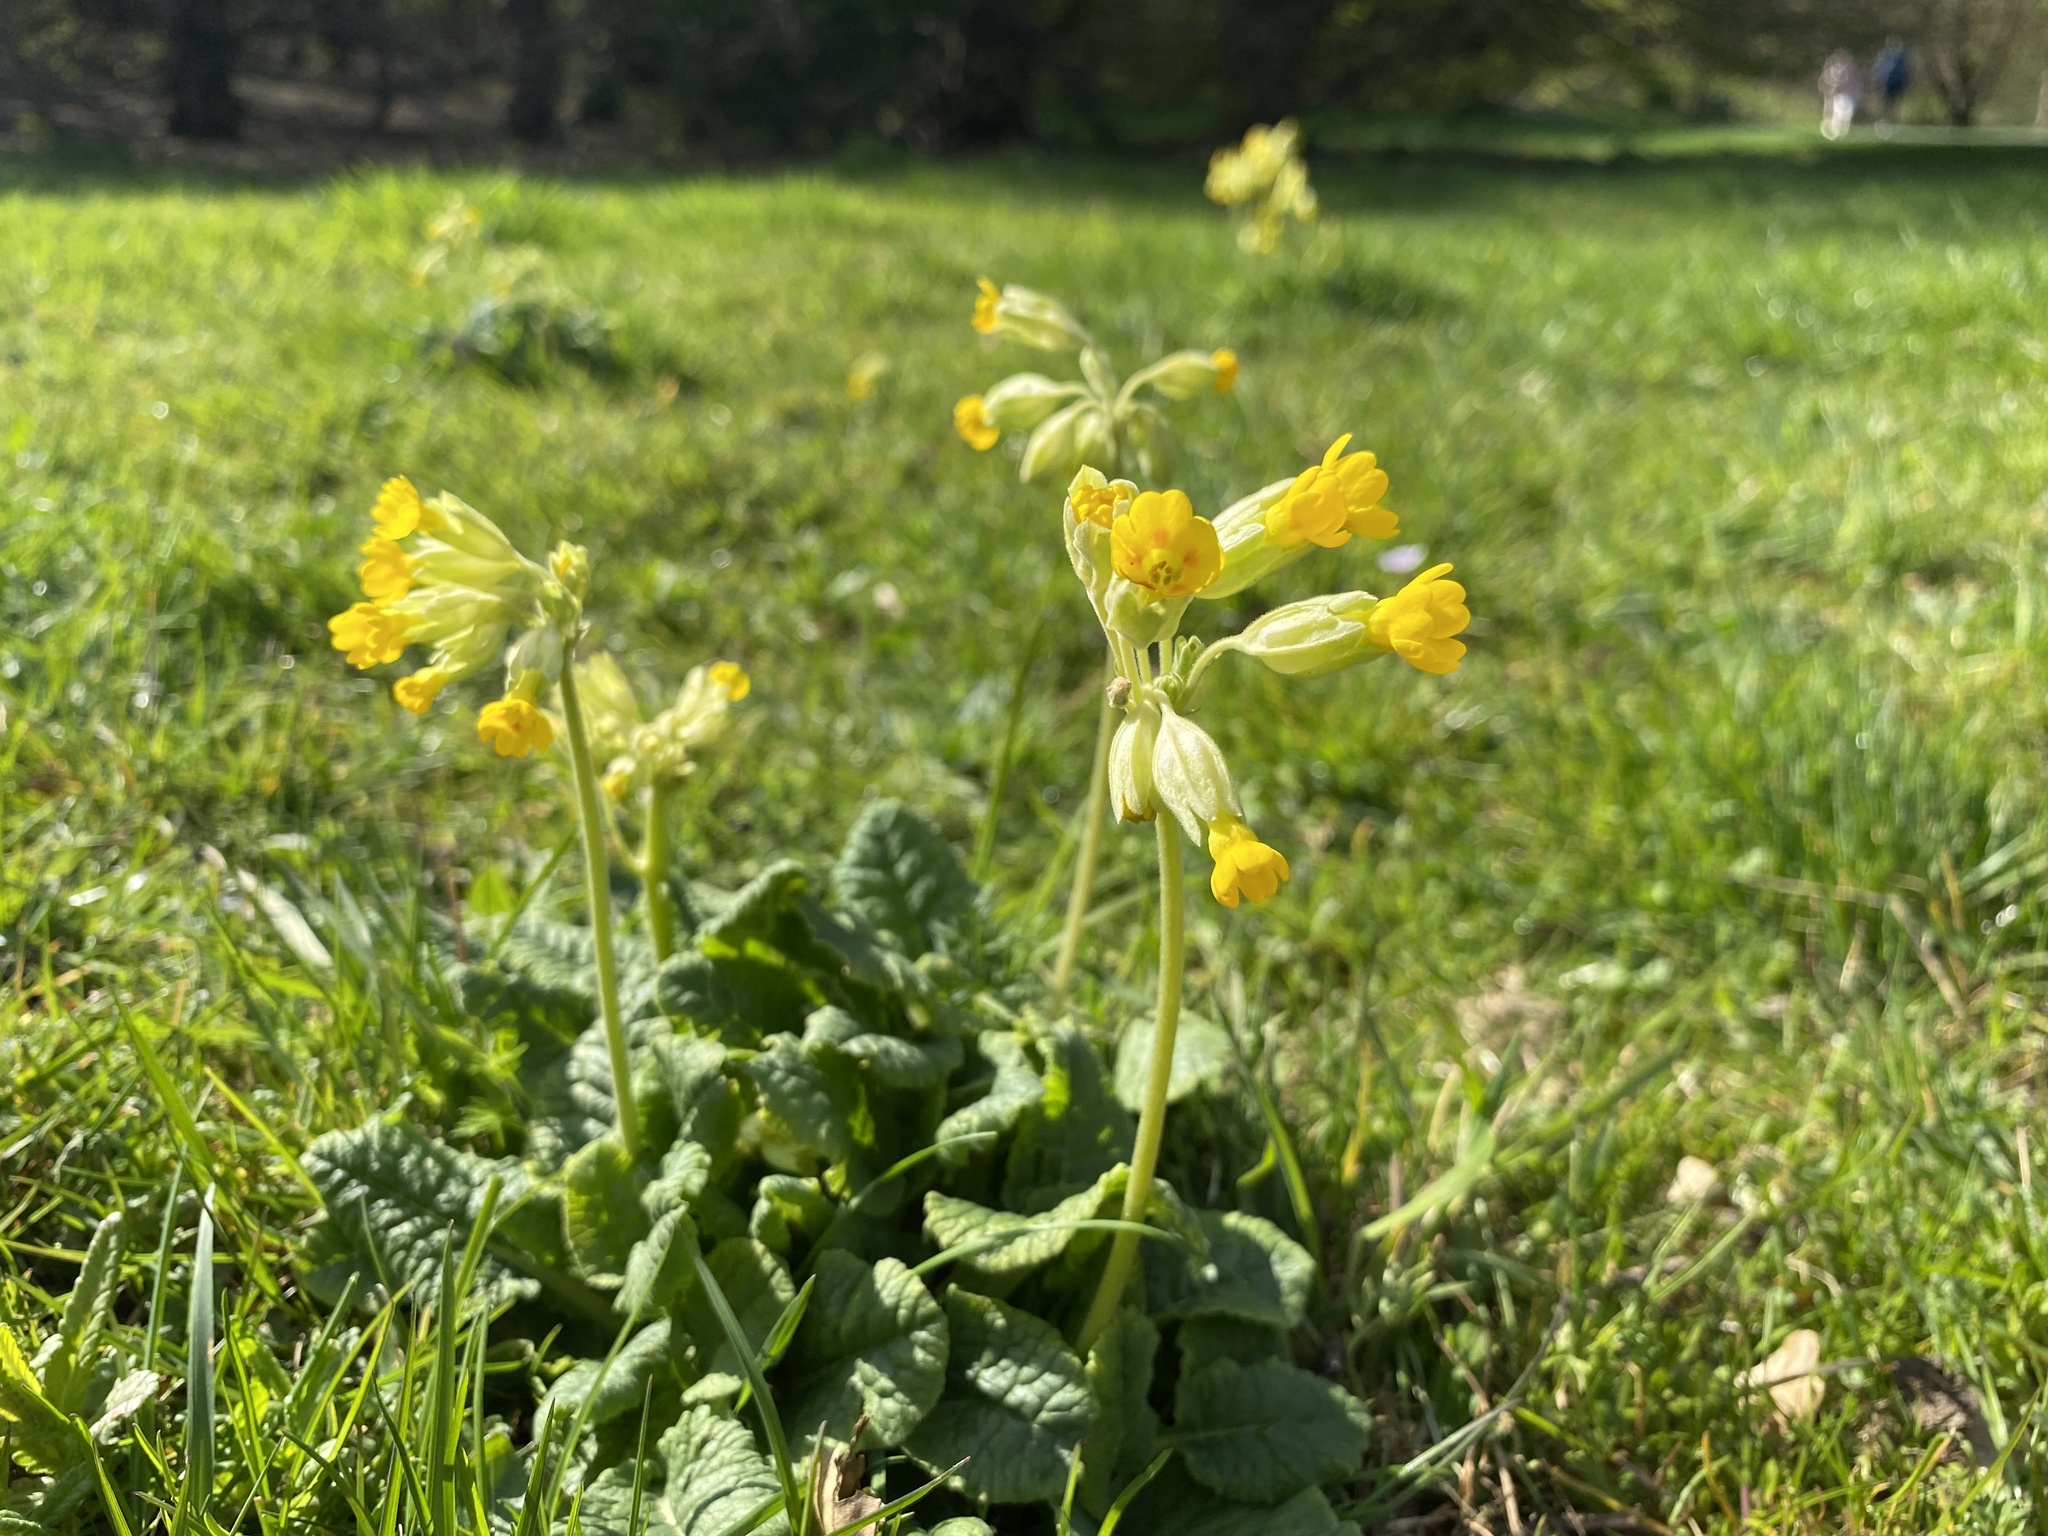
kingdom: Plantae
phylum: Tracheophyta
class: Magnoliopsida
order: Ericales
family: Primulaceae
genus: Primula
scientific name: Primula veris
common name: Cowslip
